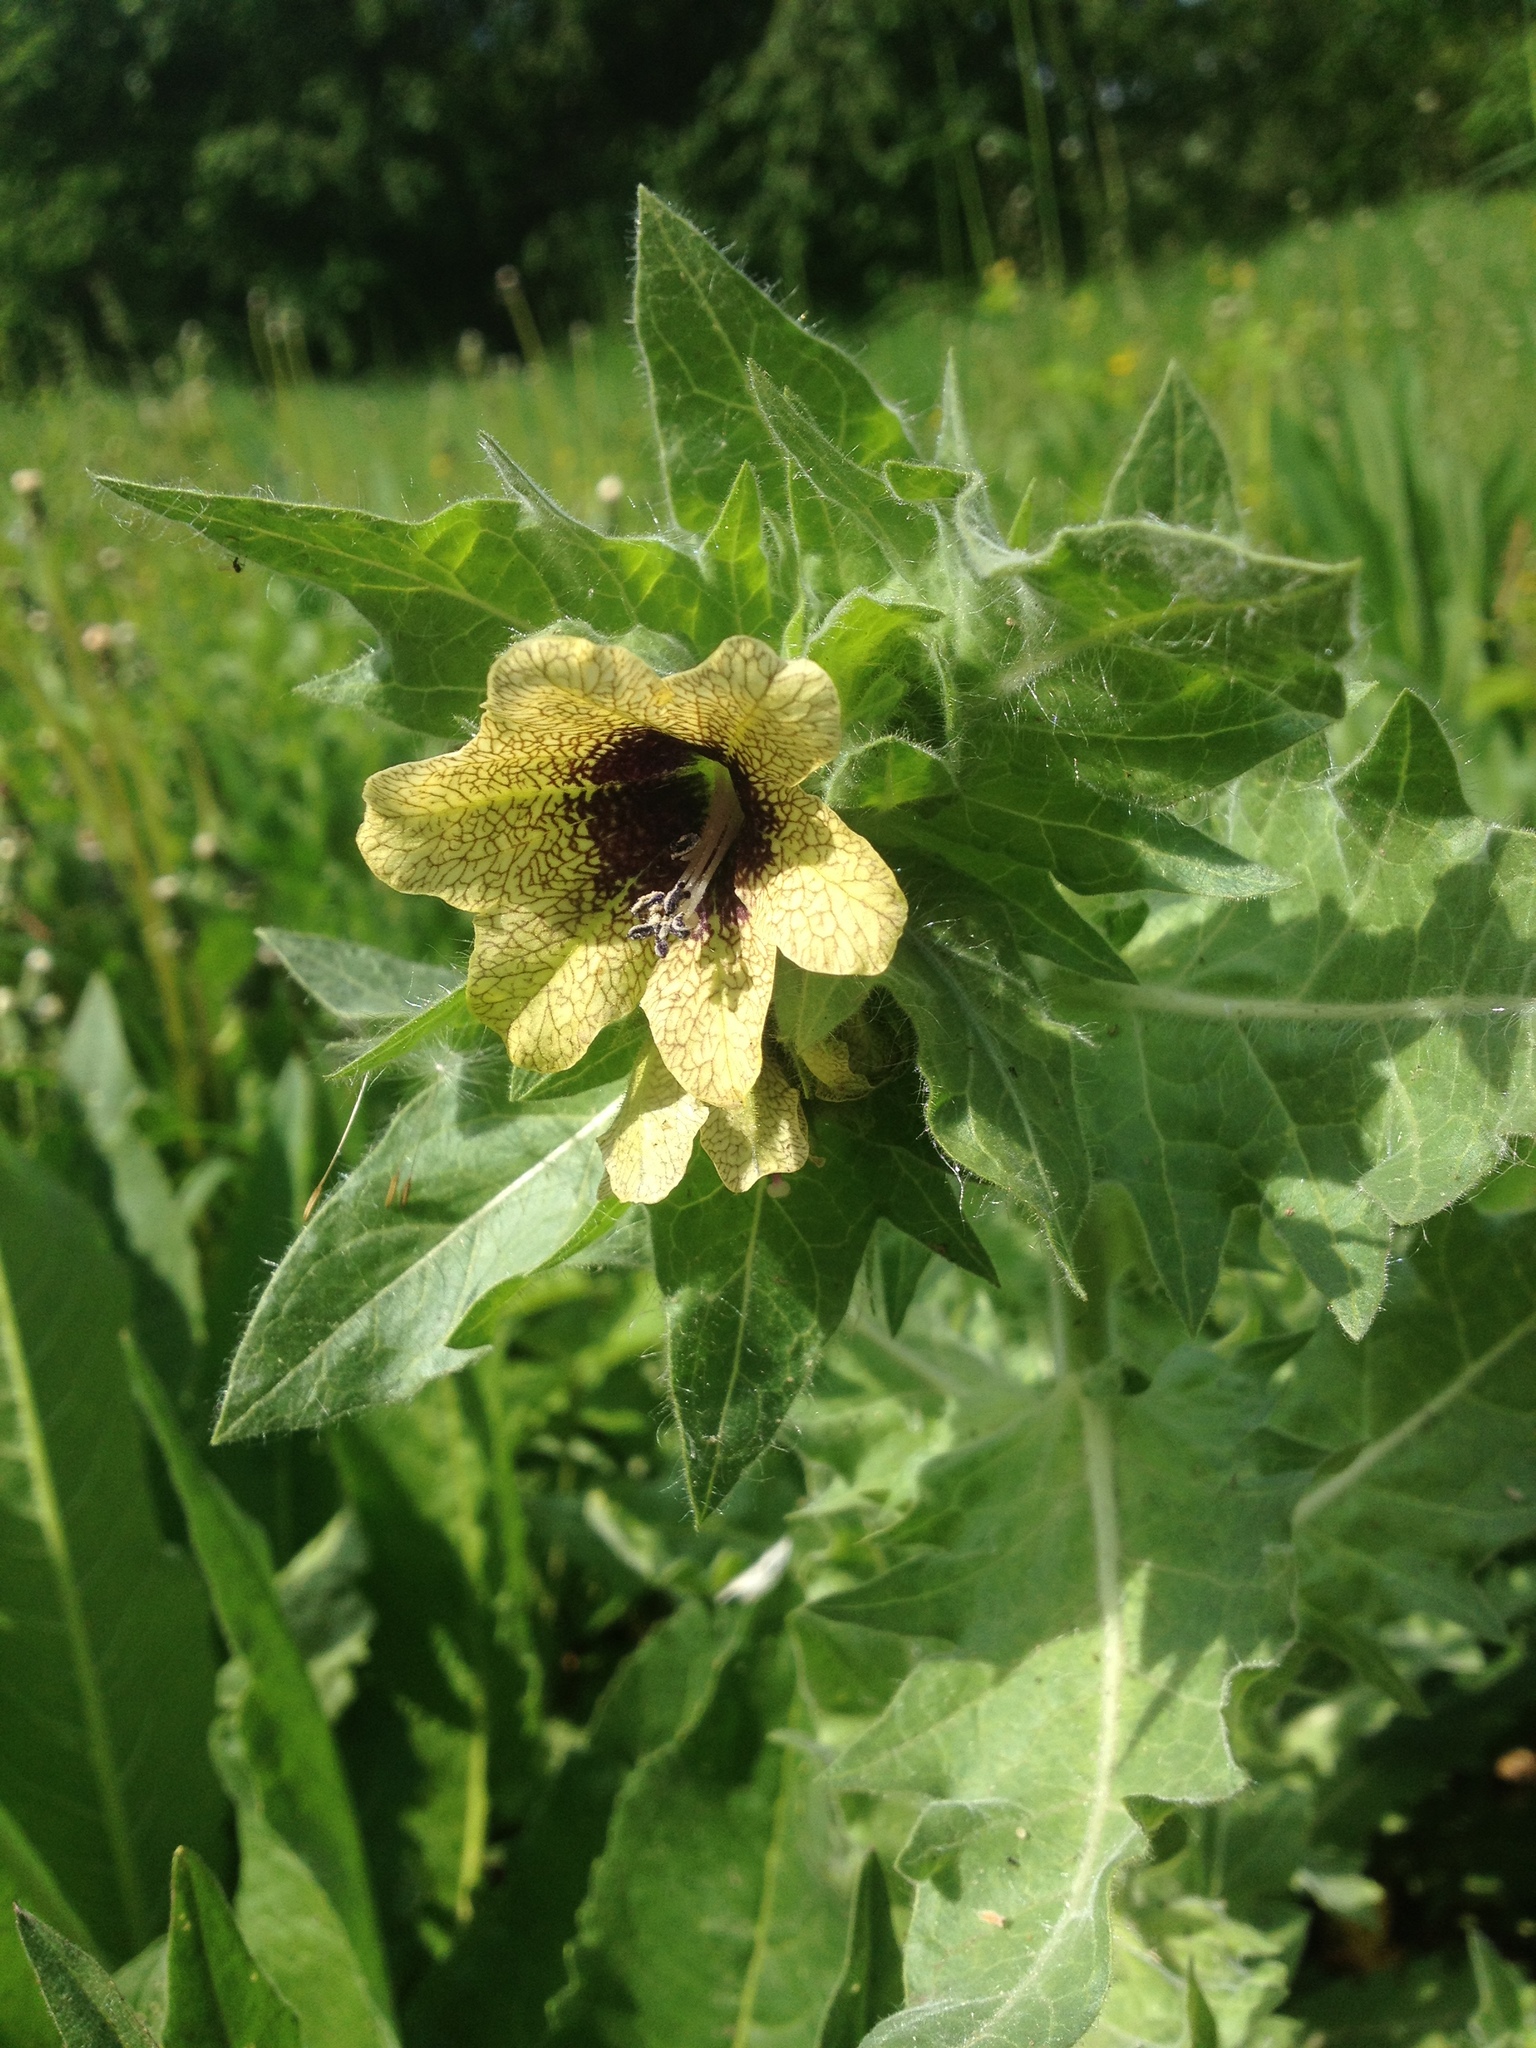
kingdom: Plantae
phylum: Tracheophyta
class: Magnoliopsida
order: Solanales
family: Solanaceae
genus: Hyoscyamus
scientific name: Hyoscyamus niger
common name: Henbane
